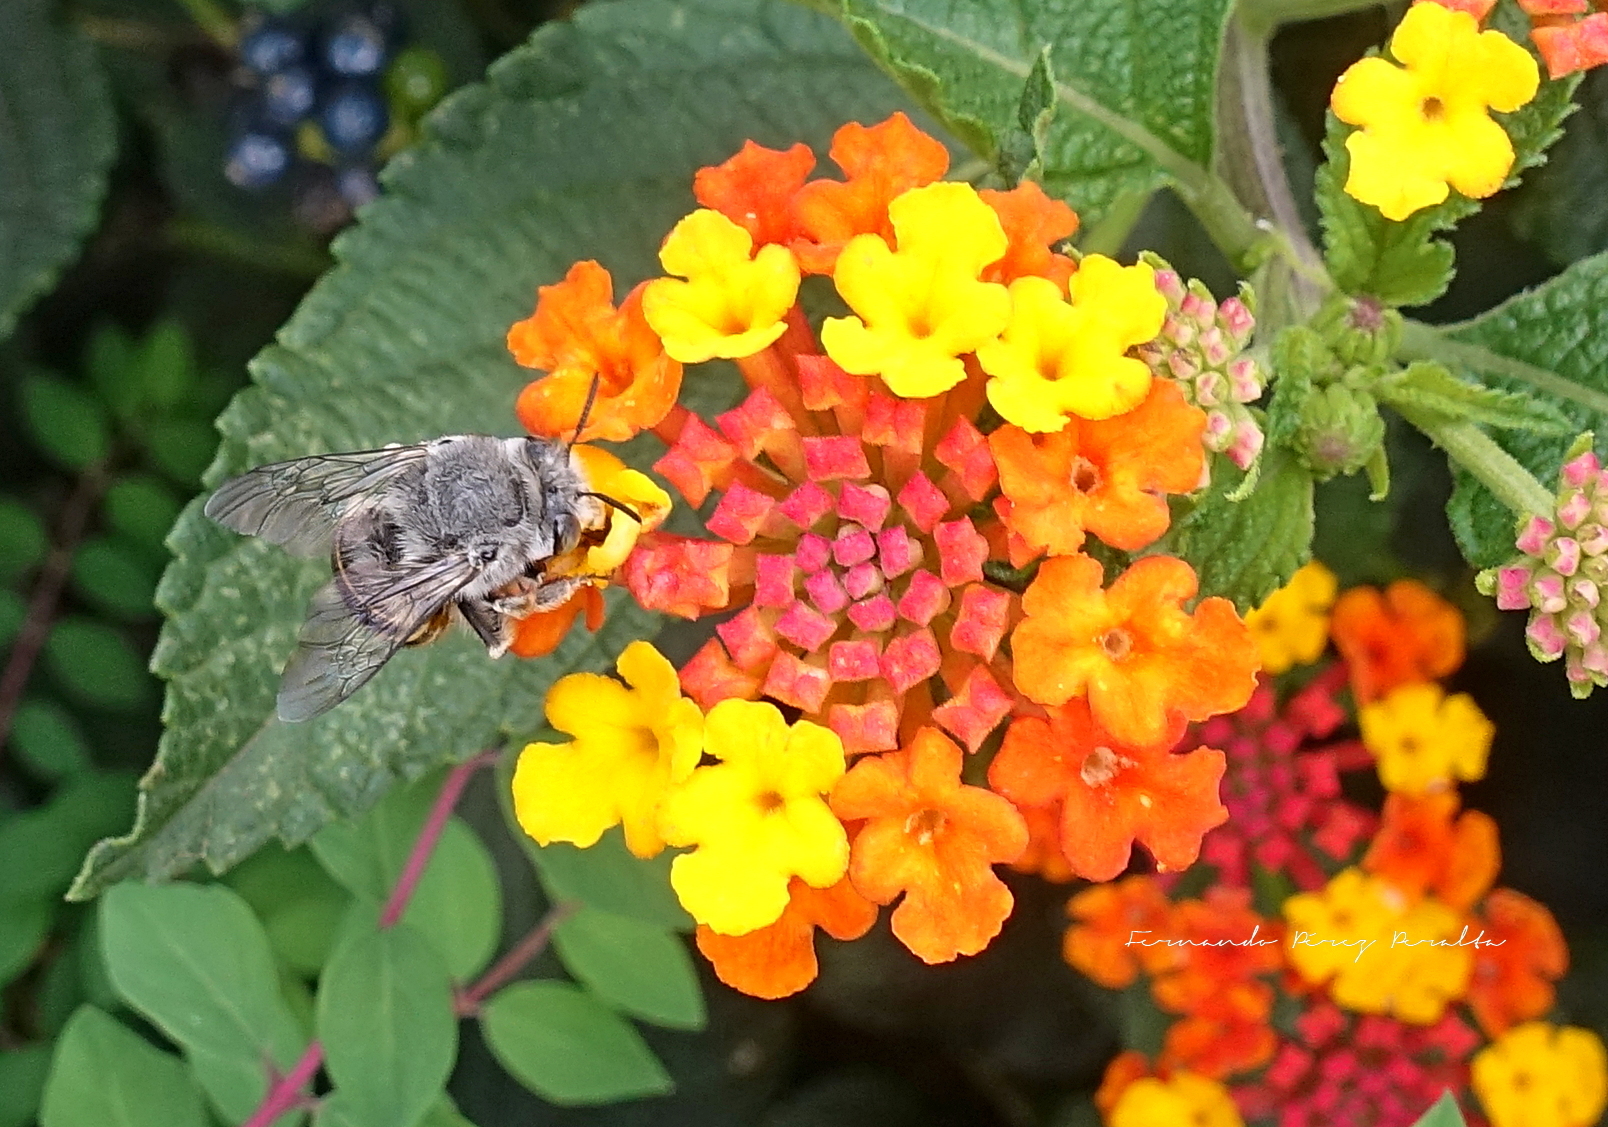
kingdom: Animalia
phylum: Arthropoda
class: Insecta
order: Hymenoptera
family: Apidae
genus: Anthophora
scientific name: Anthophora marginata
